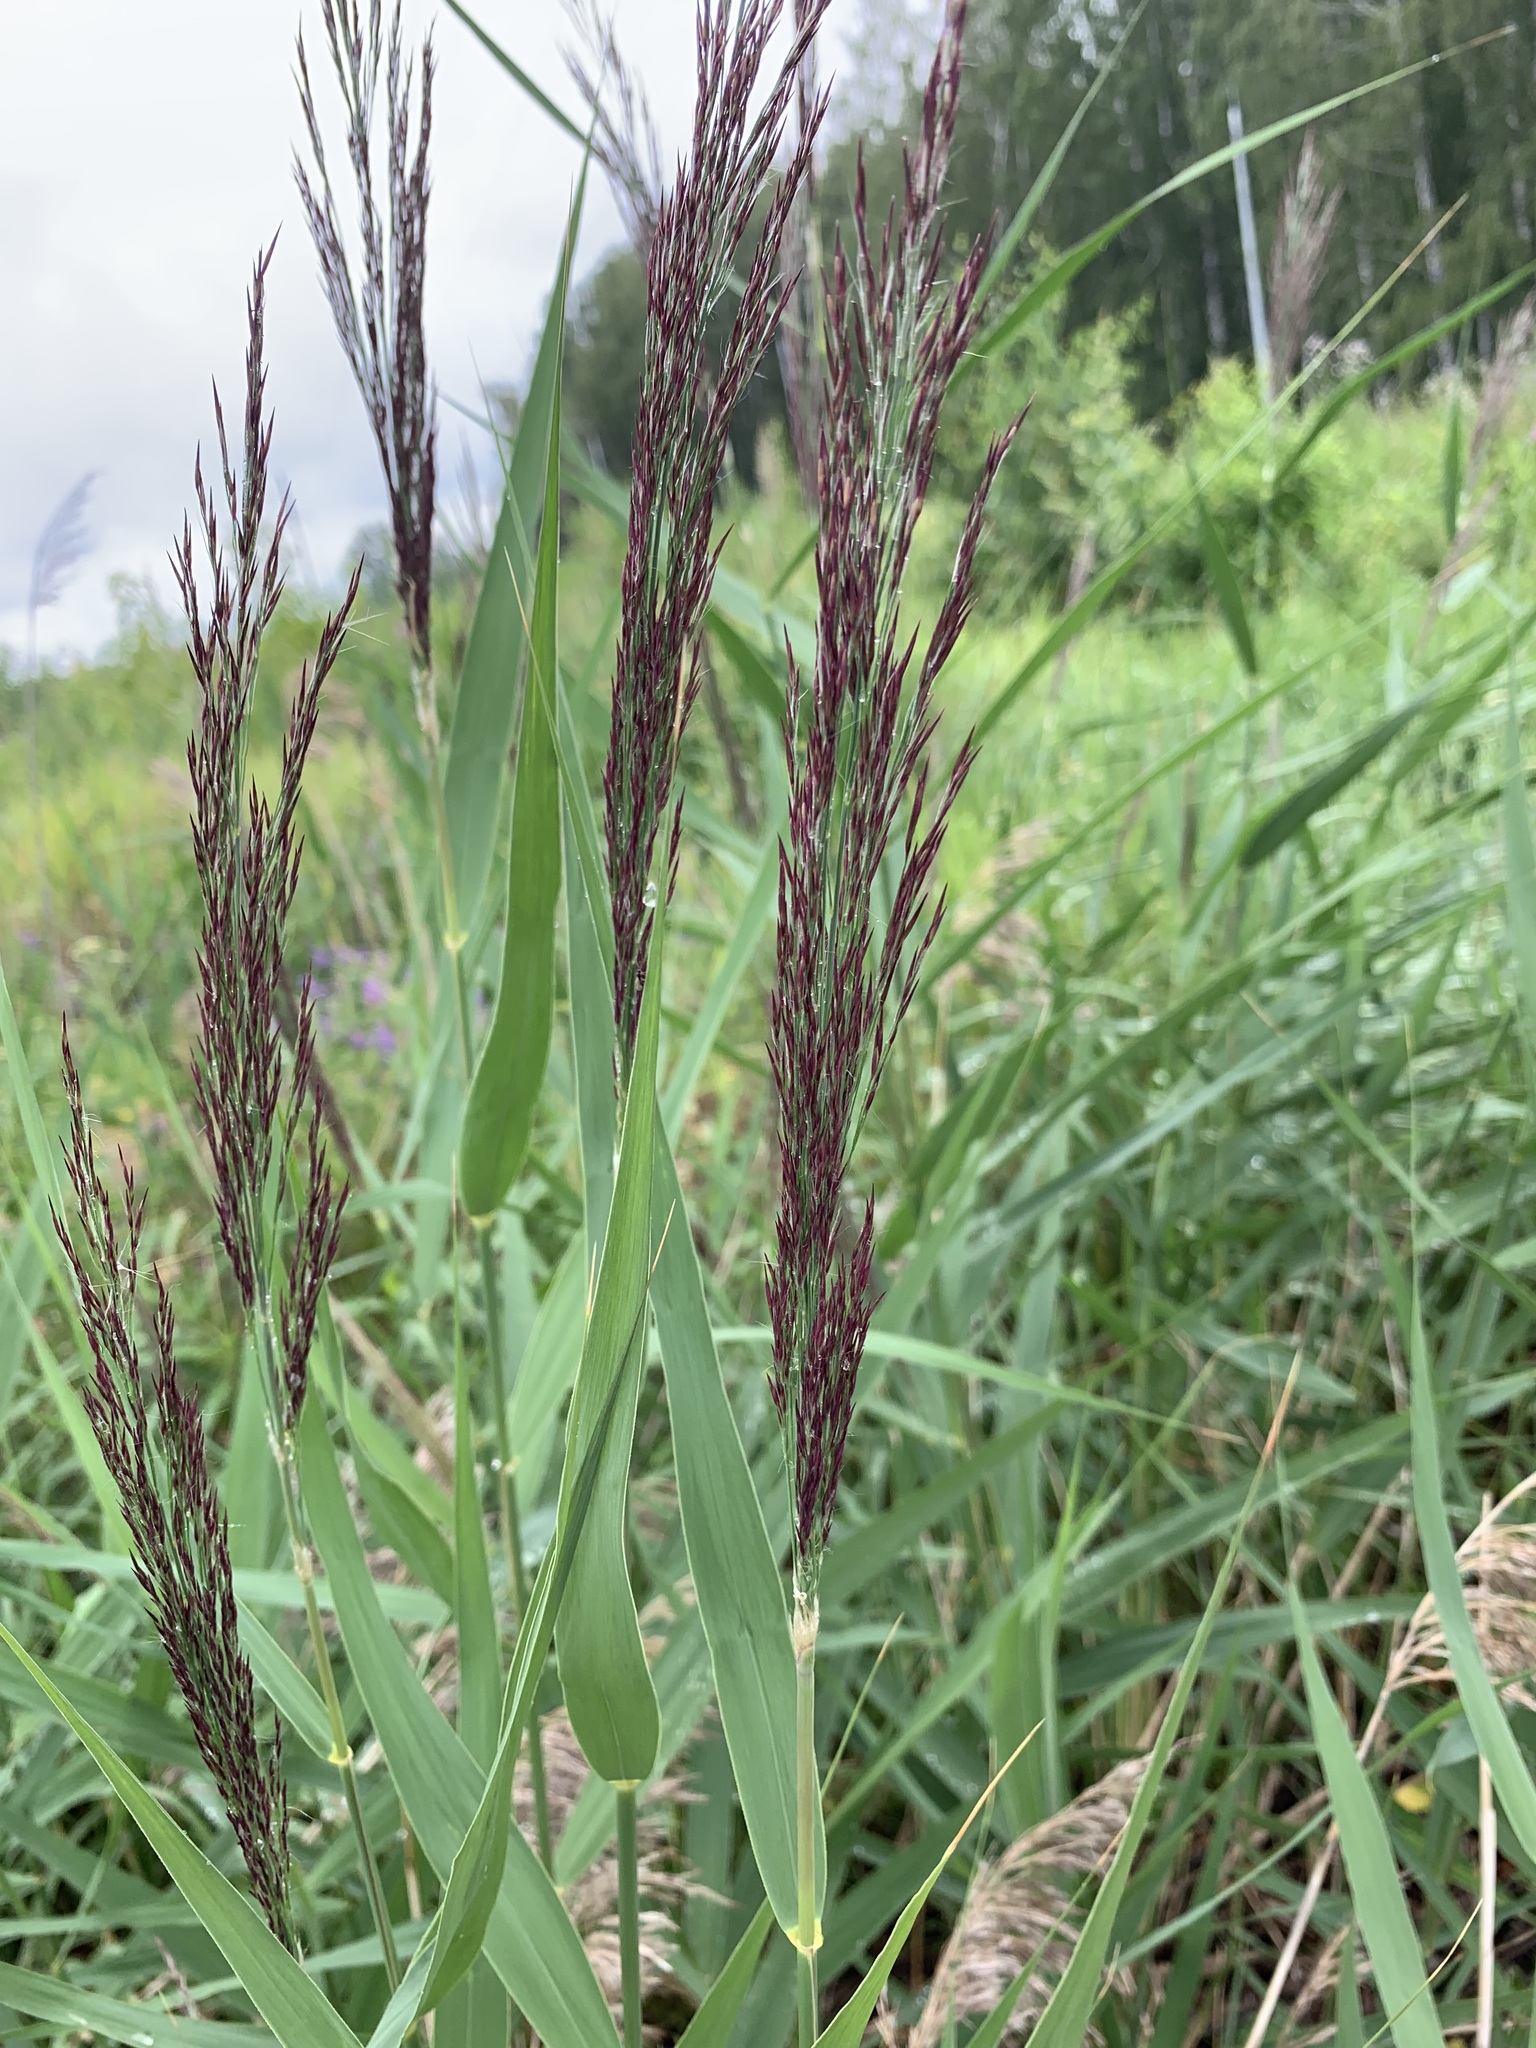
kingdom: Plantae
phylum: Tracheophyta
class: Liliopsida
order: Poales
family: Poaceae
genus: Phragmites
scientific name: Phragmites australis
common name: Common reed
